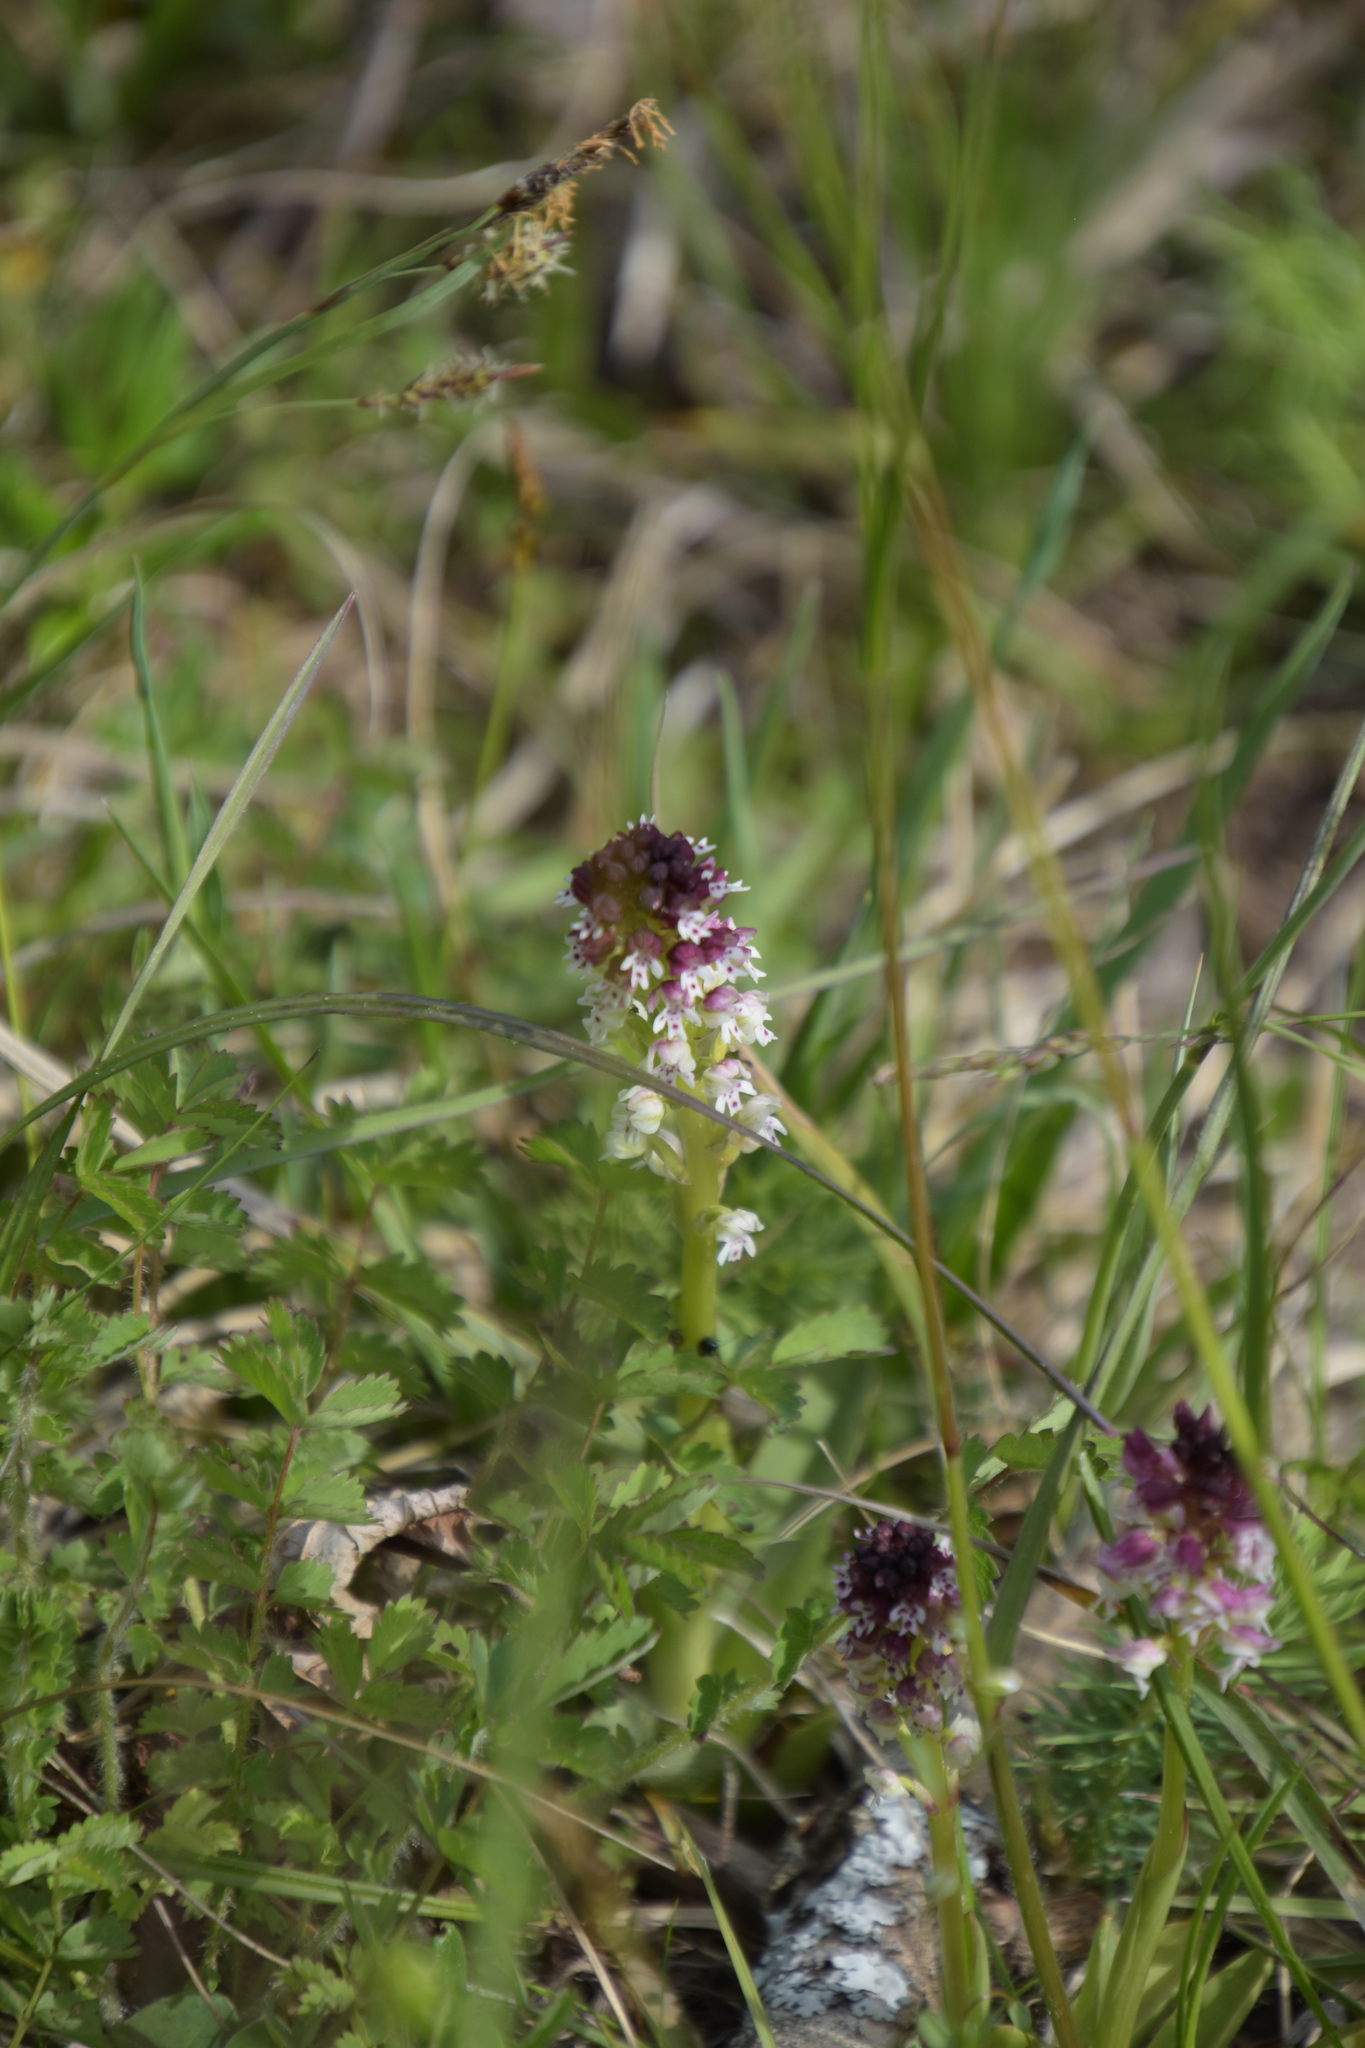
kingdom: Plantae
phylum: Tracheophyta
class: Liliopsida
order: Asparagales
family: Orchidaceae
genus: Neotinea
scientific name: Neotinea ustulata
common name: Burnt orchid
